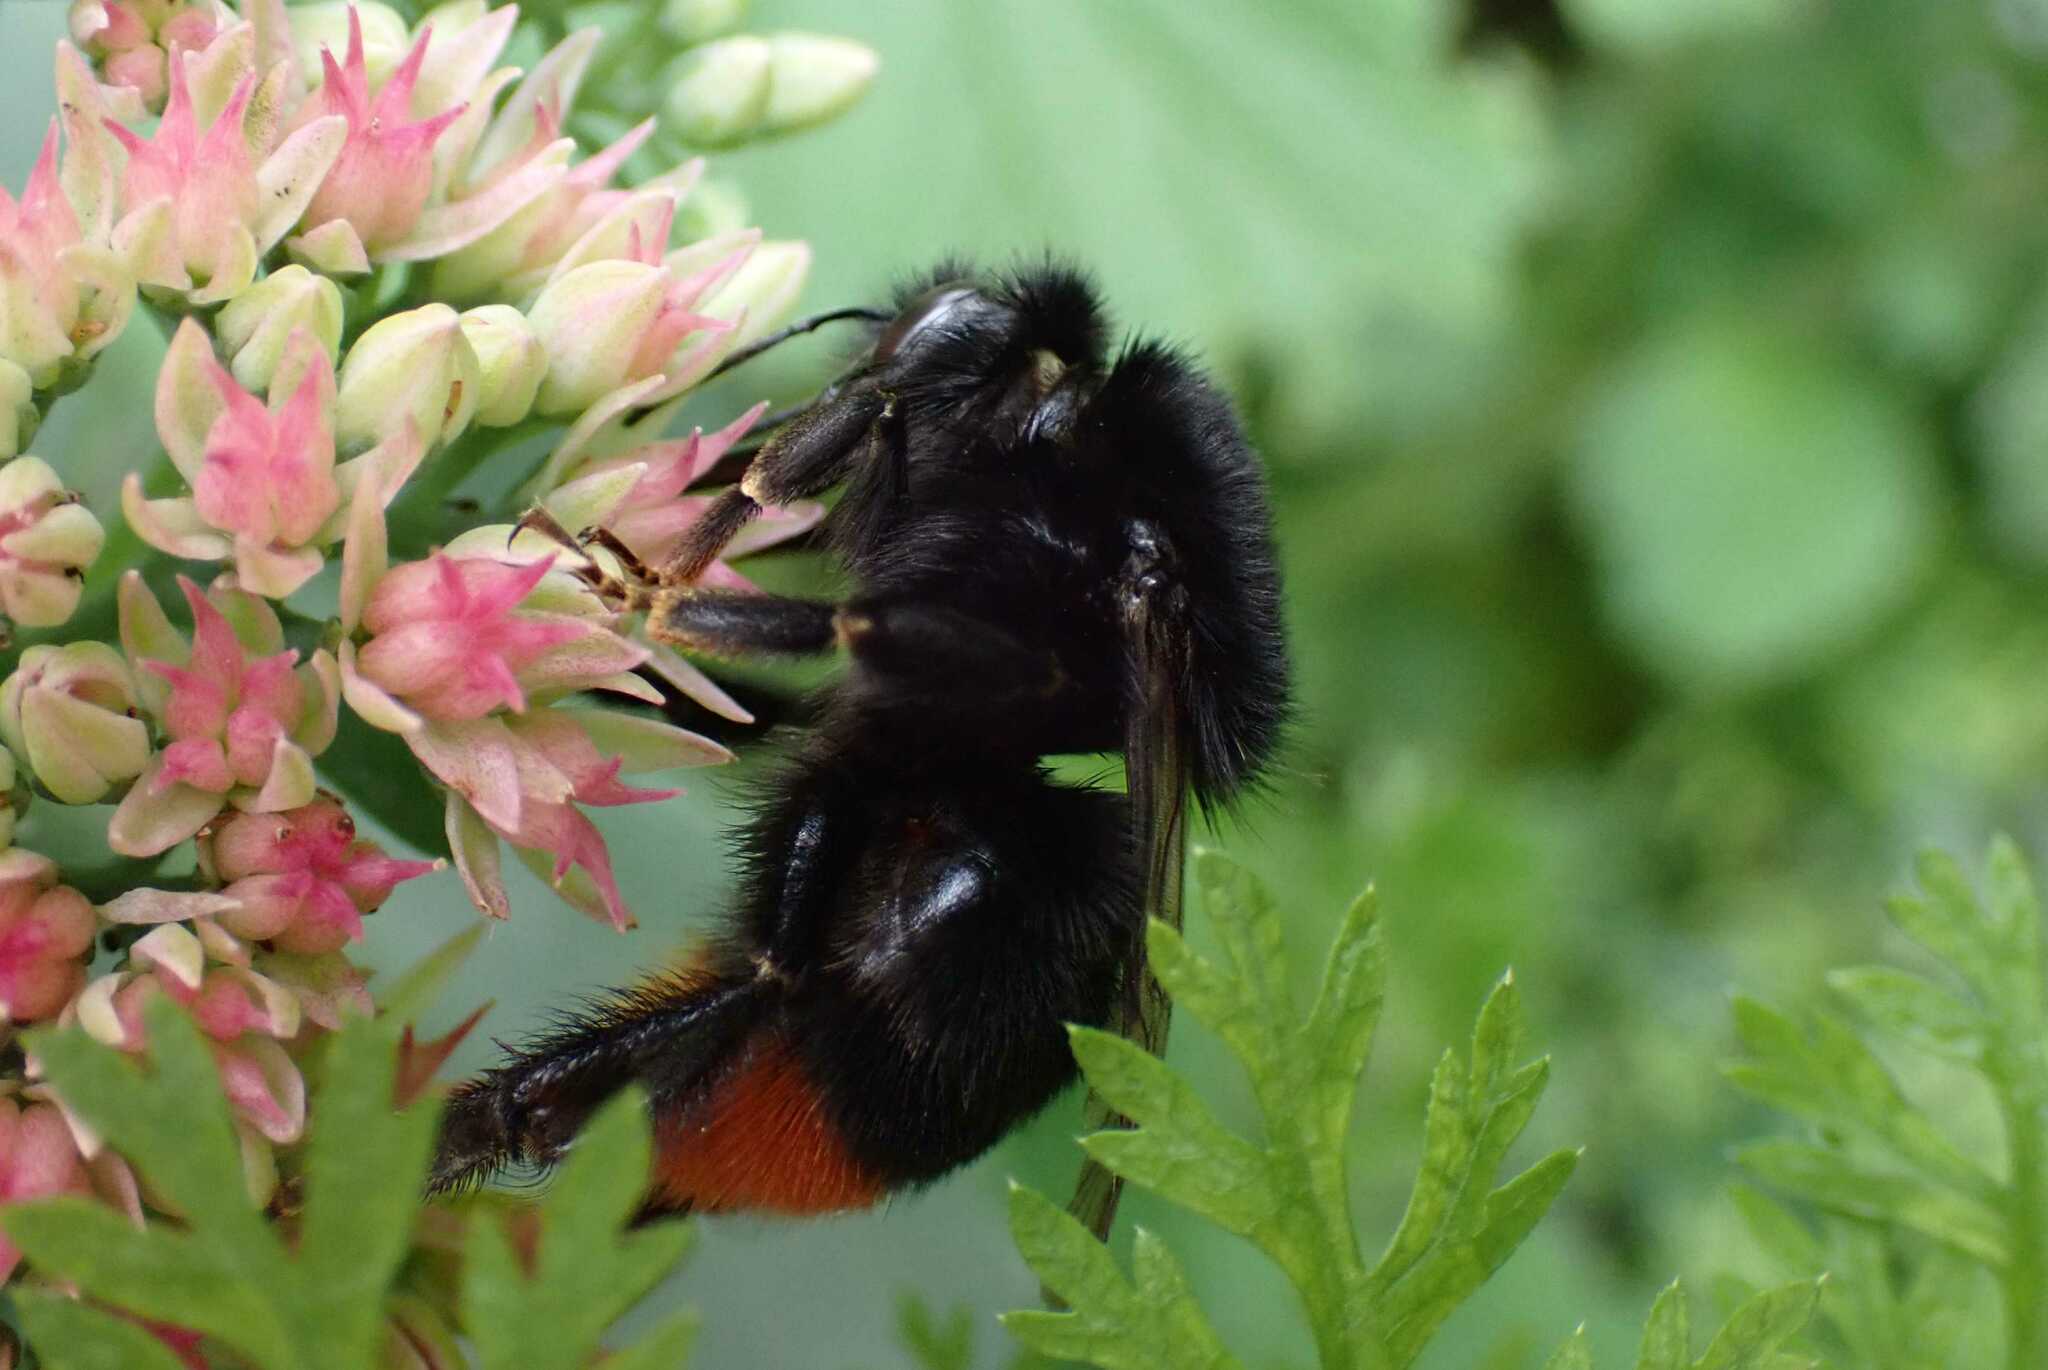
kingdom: Animalia
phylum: Arthropoda
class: Insecta
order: Hymenoptera
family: Apidae
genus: Bombus
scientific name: Bombus lapidarius
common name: Large red-tailed humble-bee
